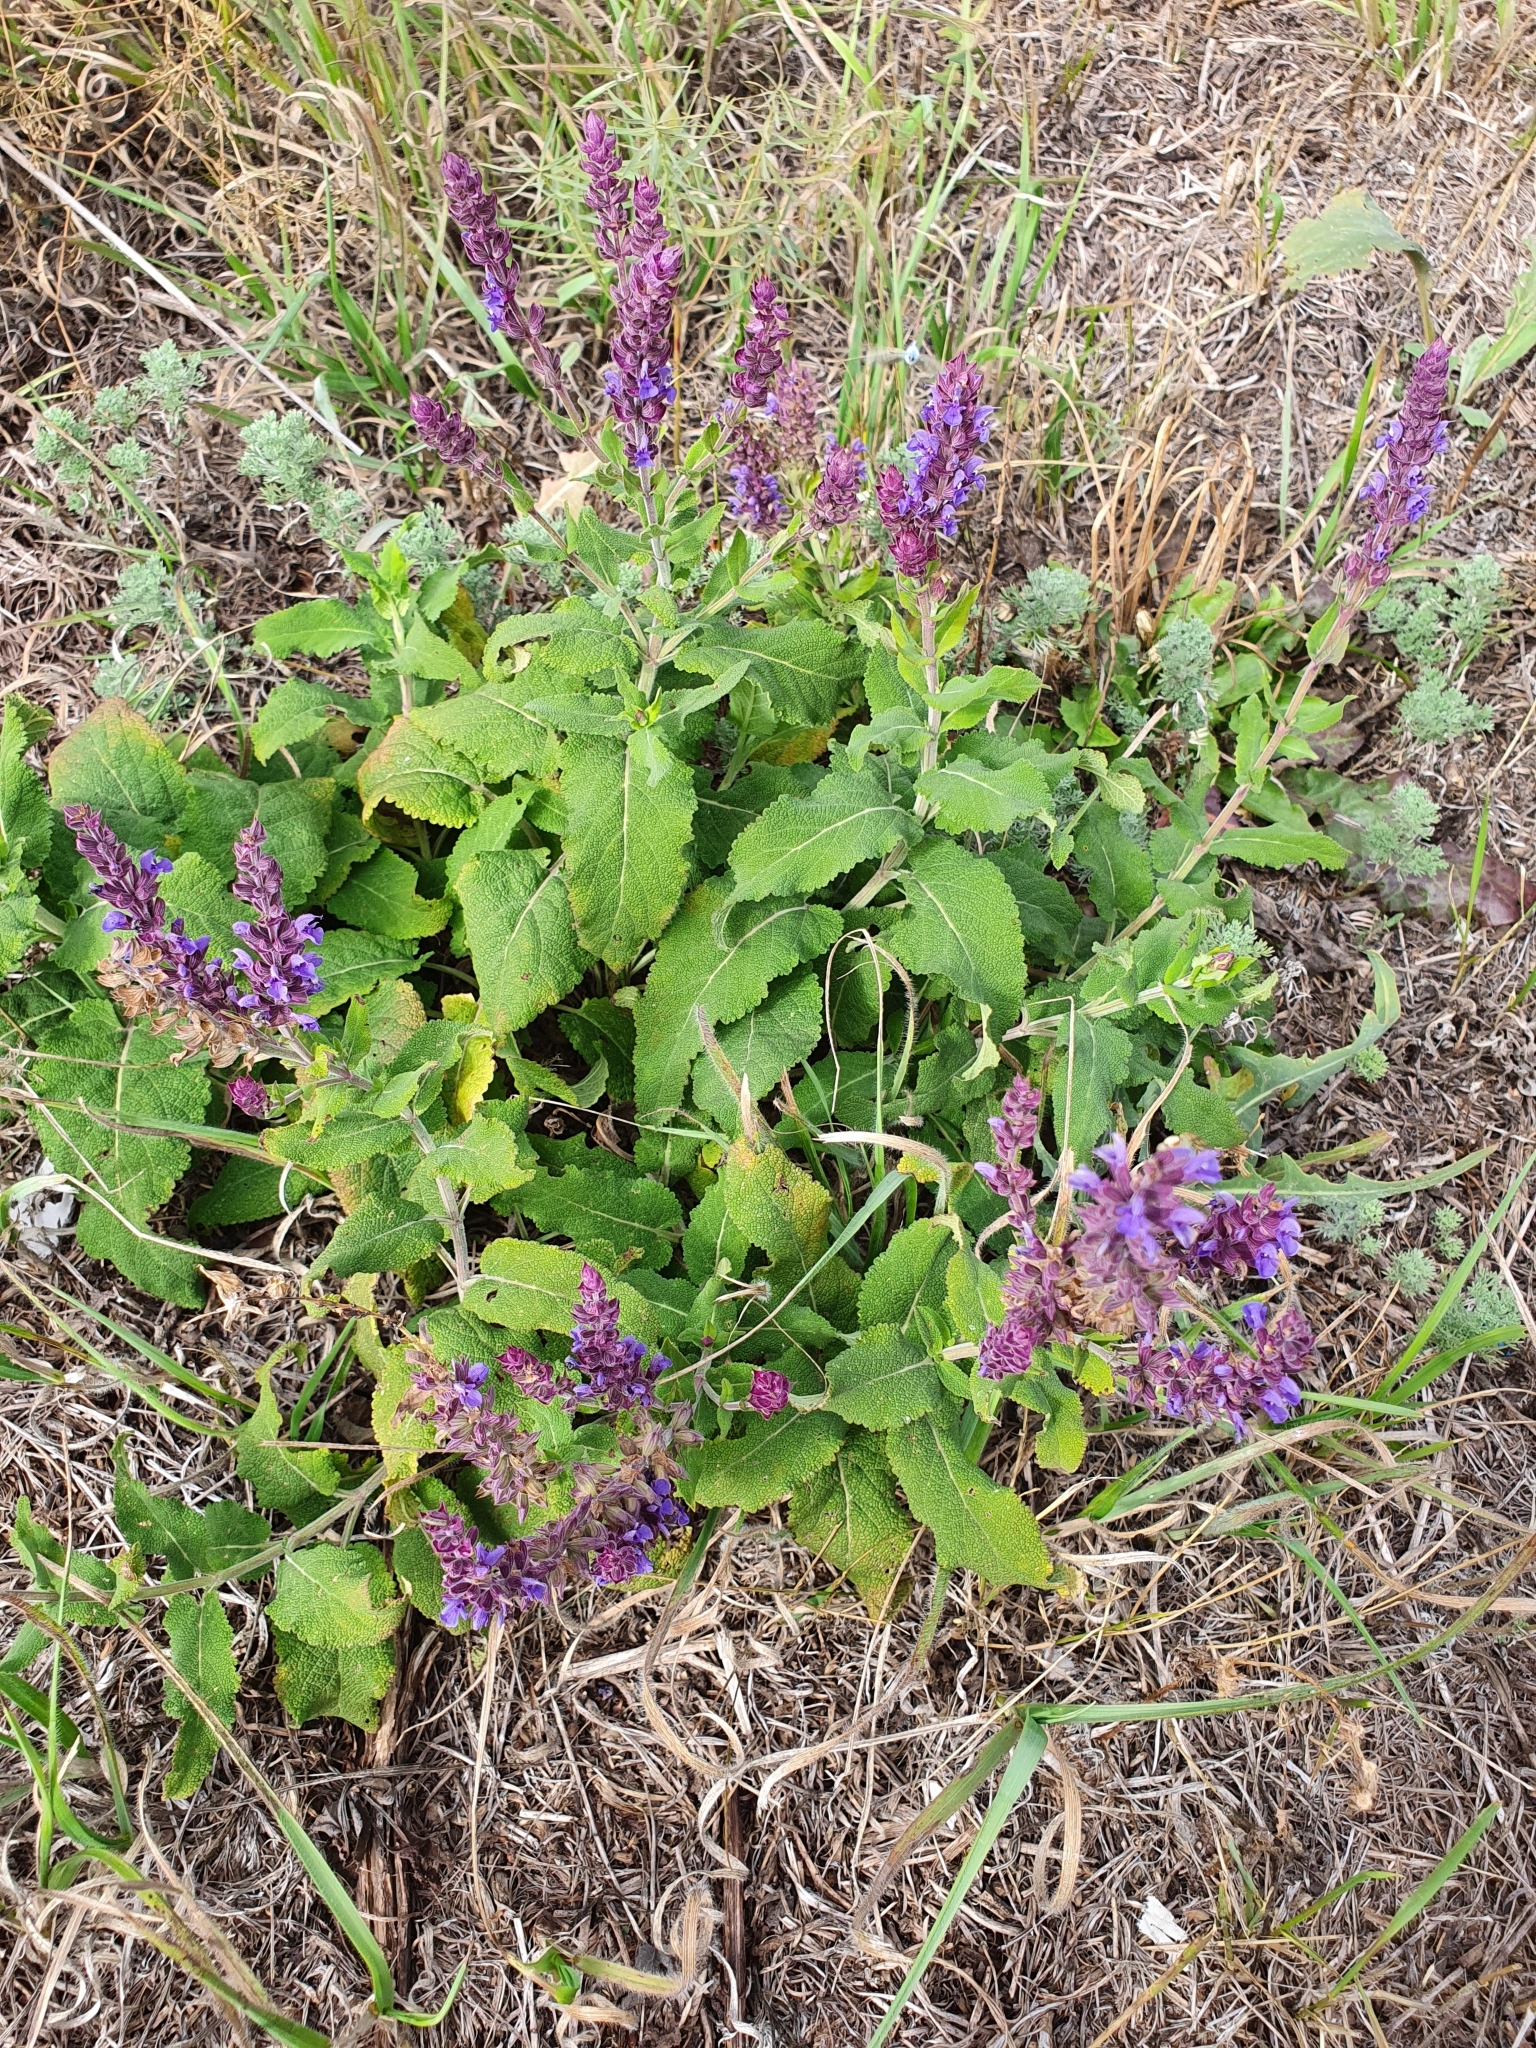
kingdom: Plantae
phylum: Tracheophyta
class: Magnoliopsida
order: Lamiales
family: Lamiaceae
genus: Salvia
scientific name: Salvia nemorosa
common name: Balkan clary
